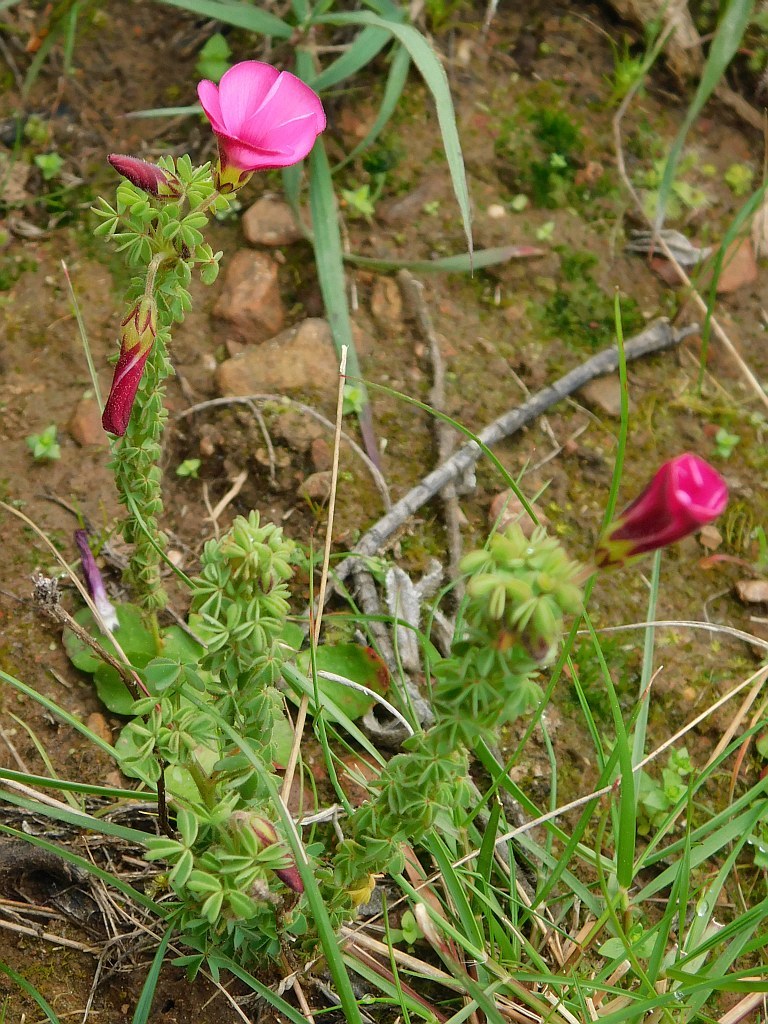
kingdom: Plantae
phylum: Tracheophyta
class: Magnoliopsida
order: Oxalidales
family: Oxalidaceae
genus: Oxalis
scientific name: Oxalis heterophylla
